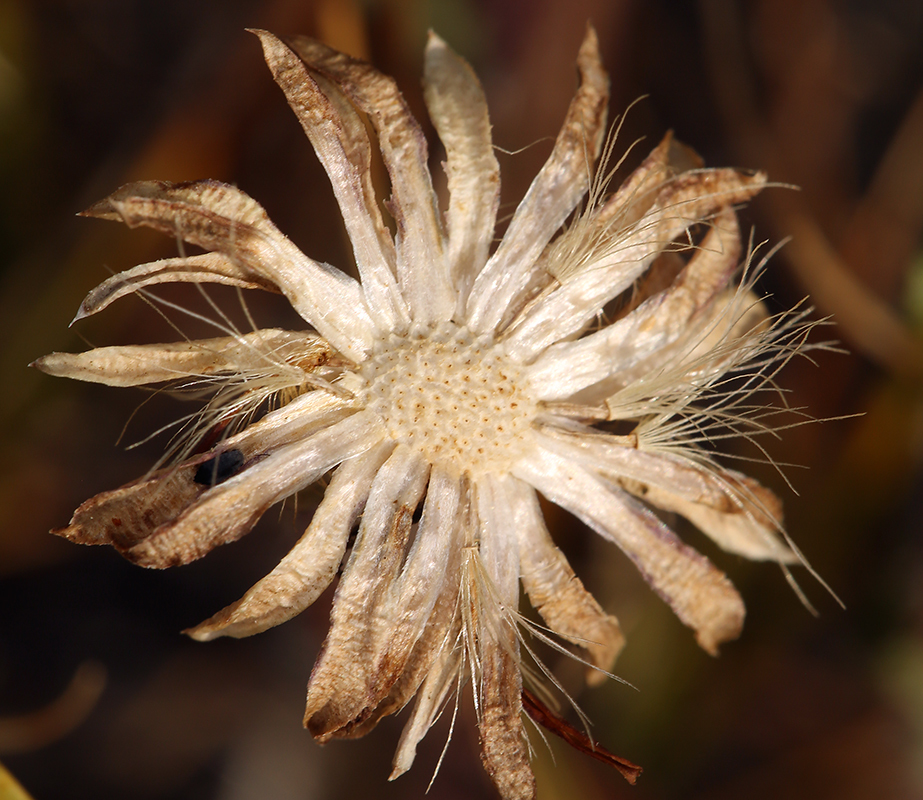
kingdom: Plantae
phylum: Tracheophyta
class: Magnoliopsida
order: Asterales
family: Asteraceae
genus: Pyrrocoma
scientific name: Pyrrocoma apargioides
